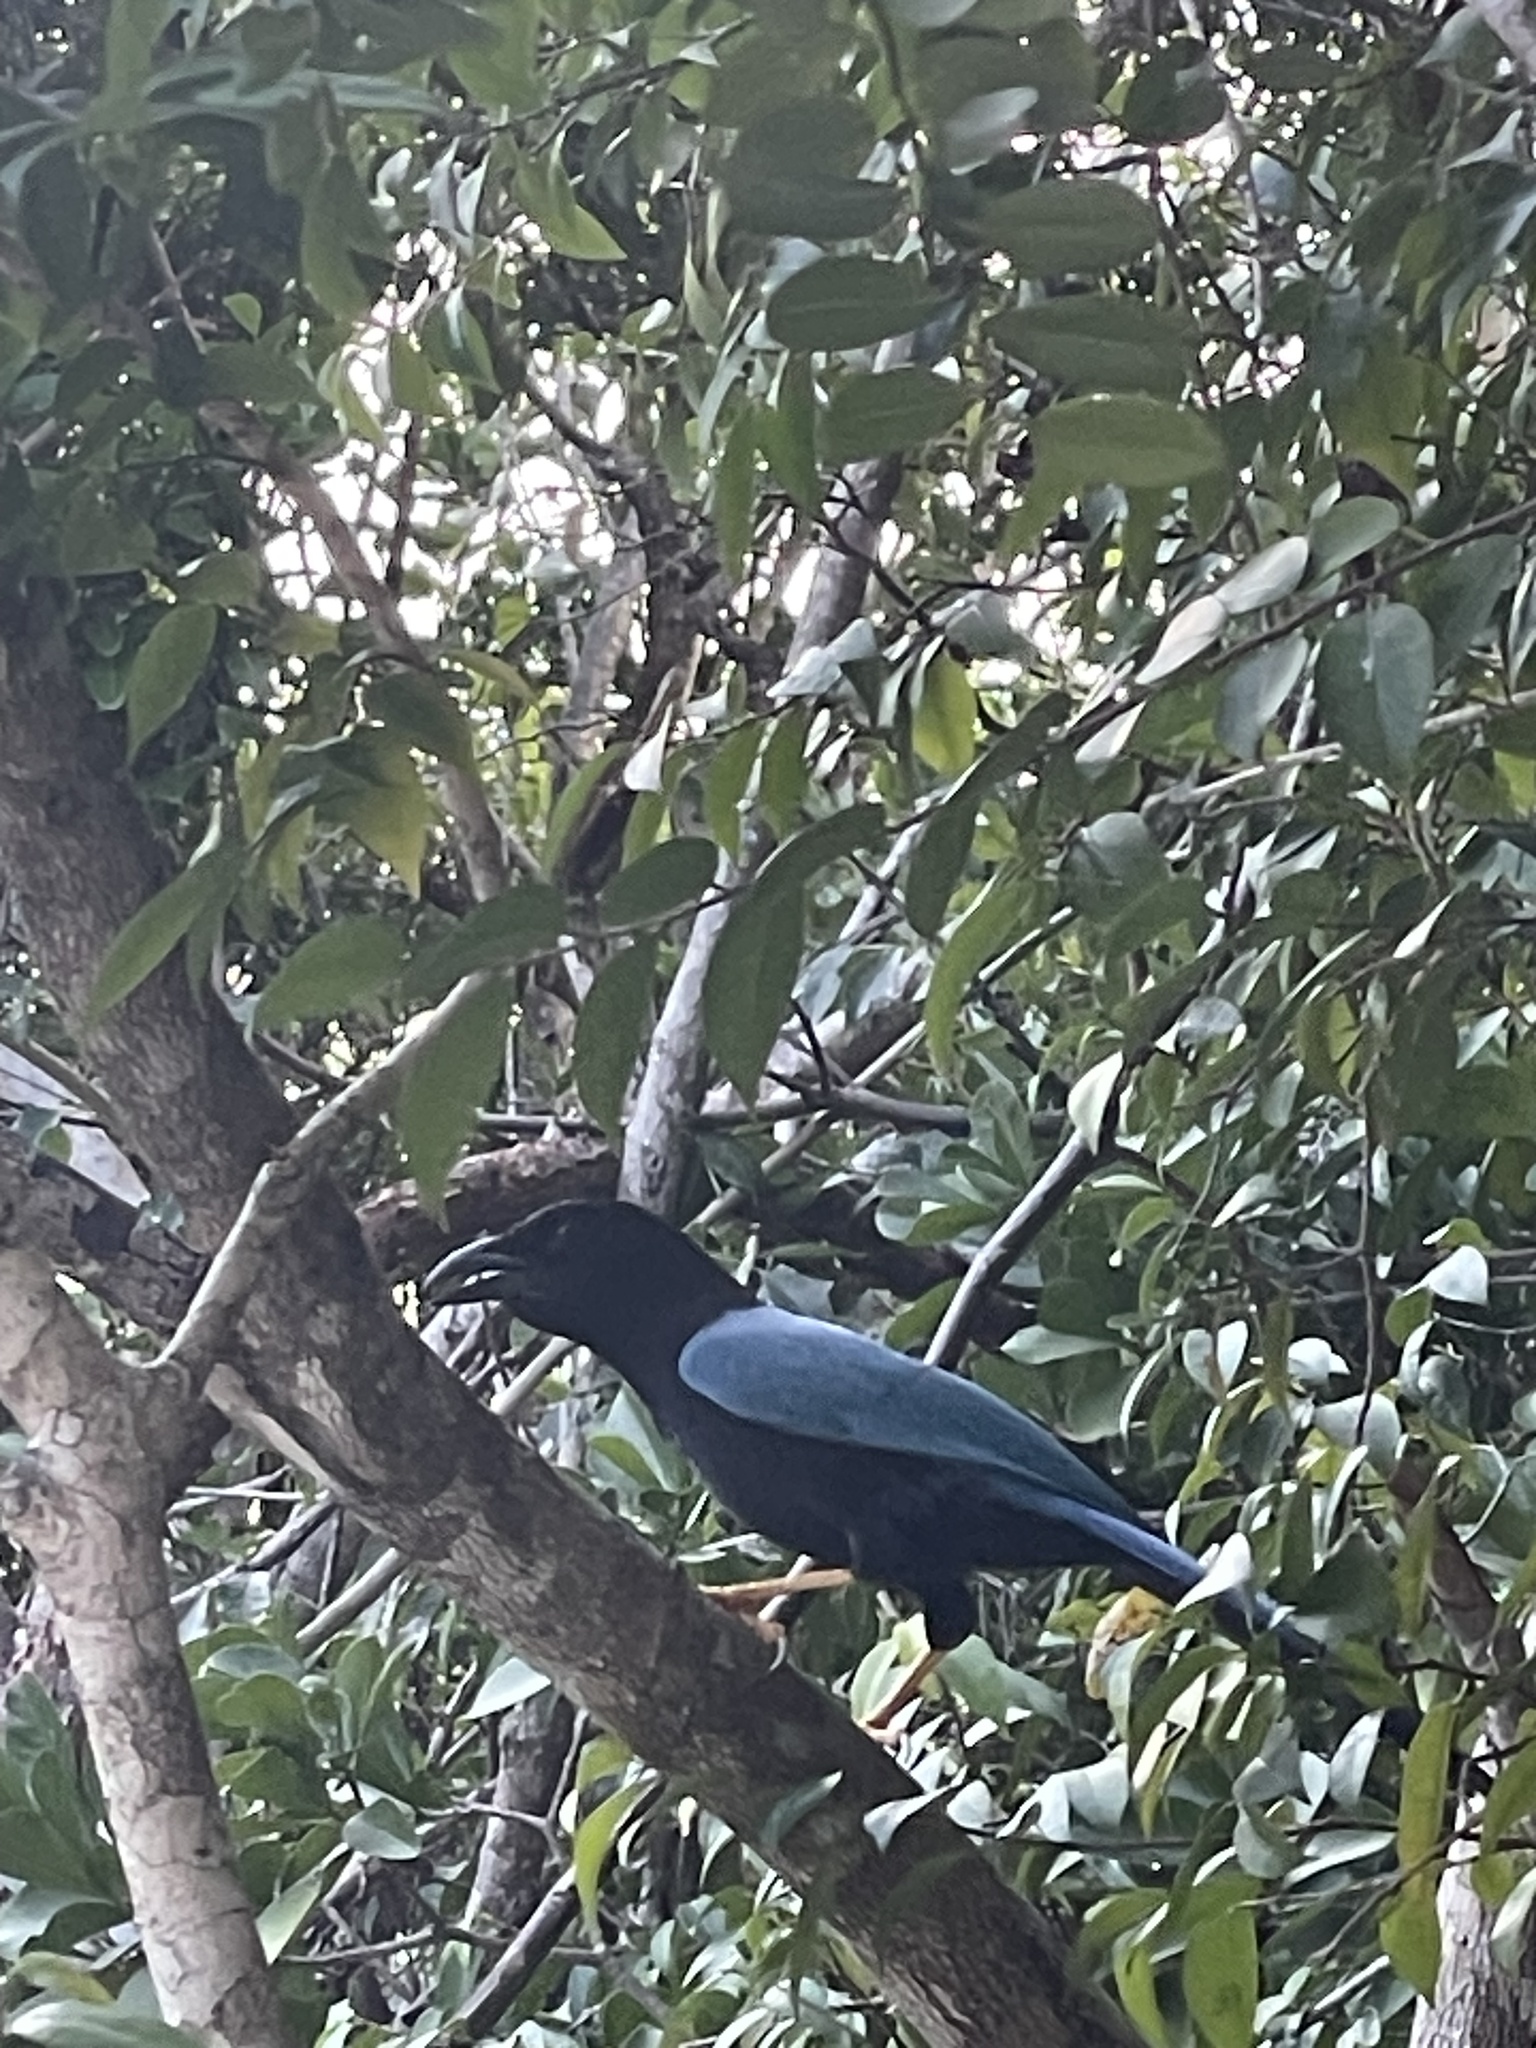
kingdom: Animalia
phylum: Chordata
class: Aves
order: Passeriformes
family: Corvidae
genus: Cyanocorax
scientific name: Cyanocorax yucatanicus
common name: Yucatan jay
